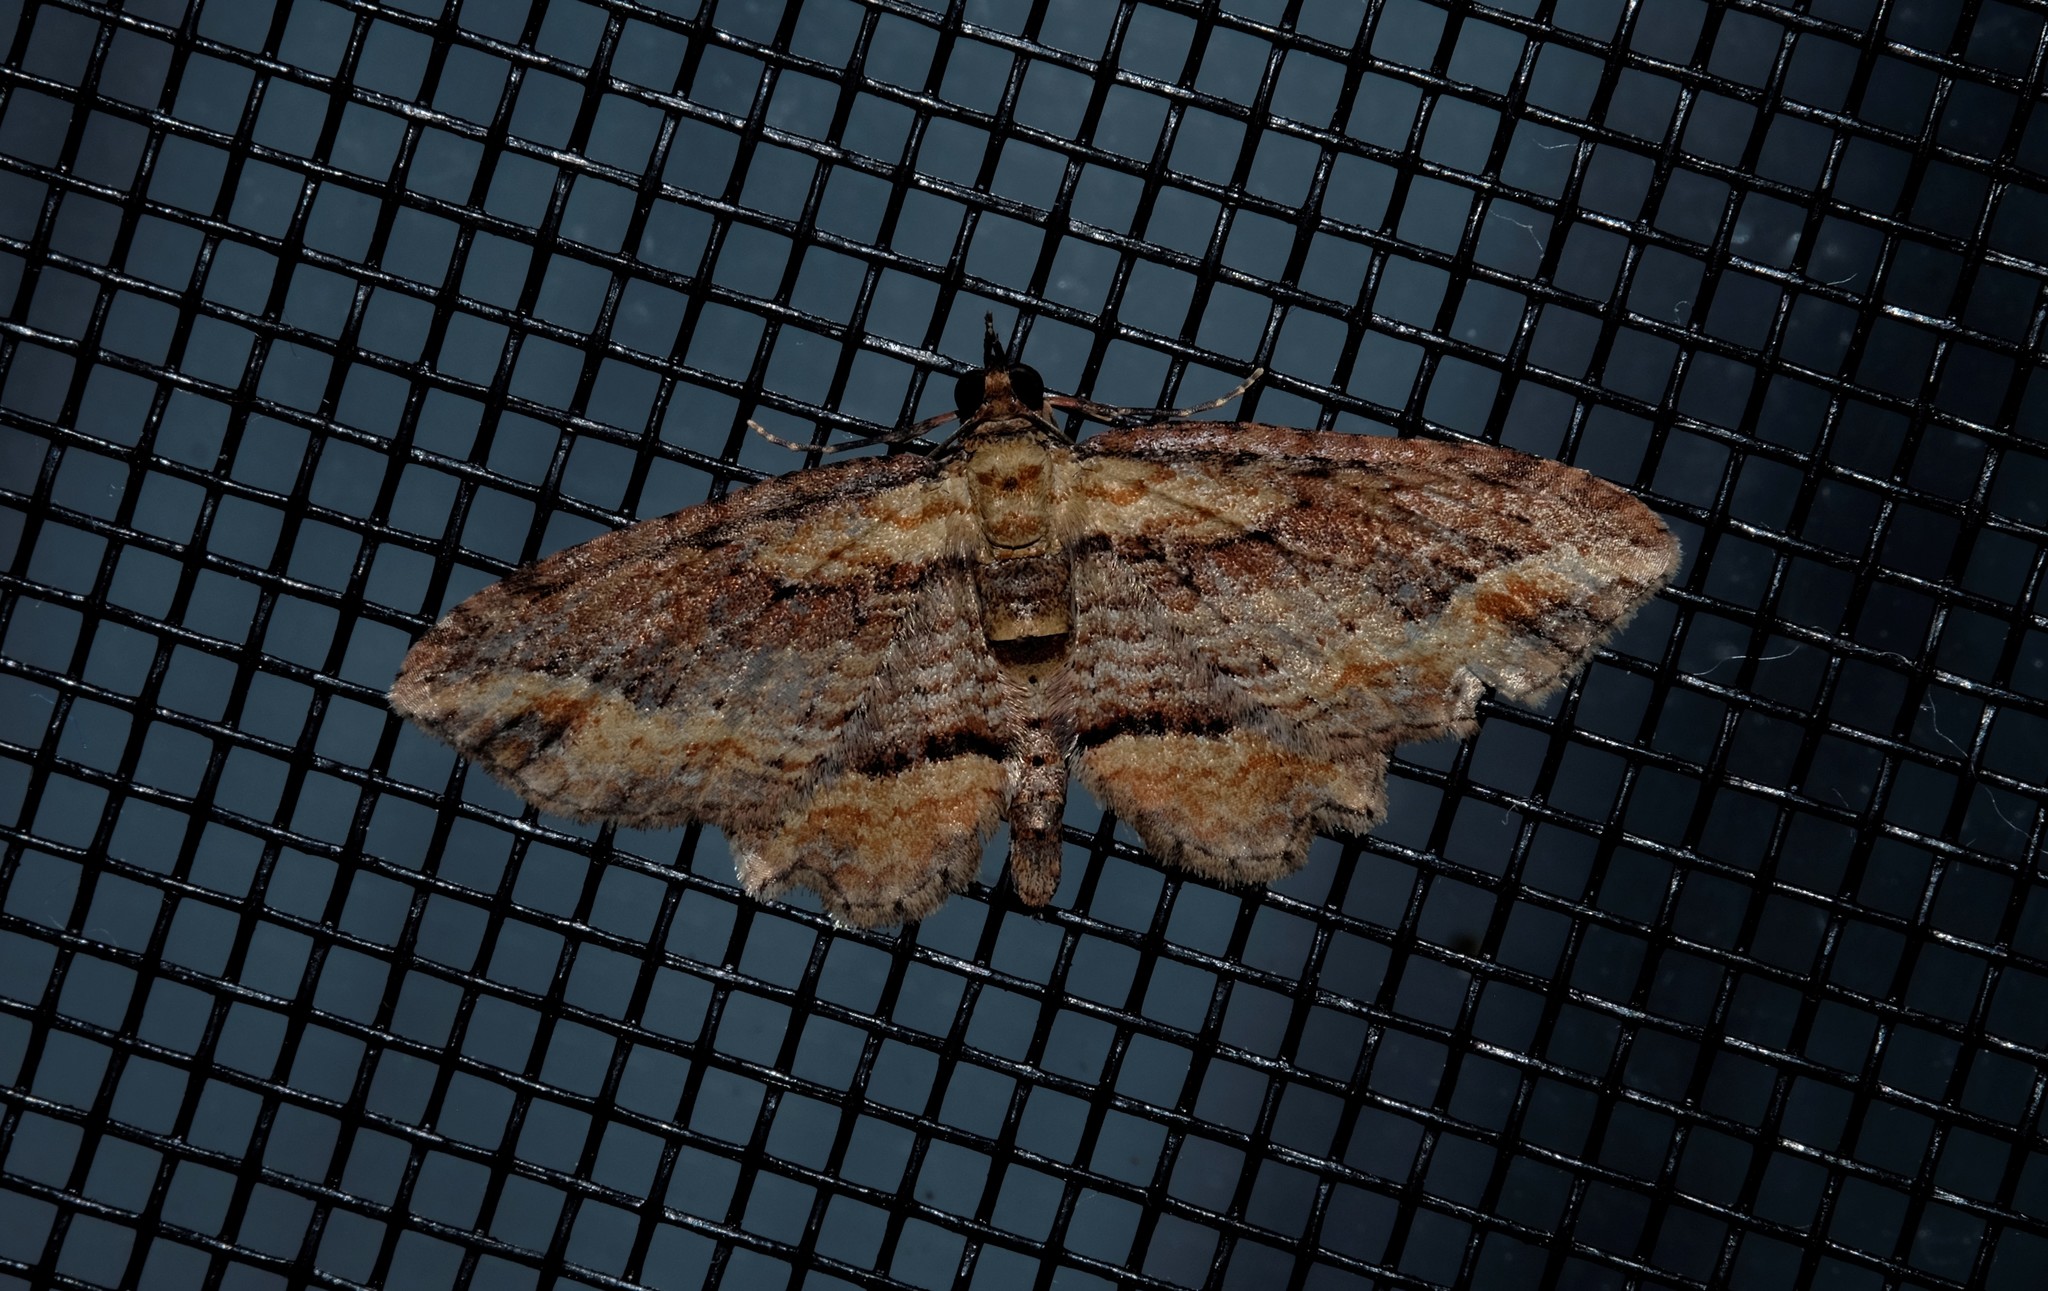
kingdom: Animalia
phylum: Arthropoda
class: Insecta
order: Lepidoptera
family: Geometridae
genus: Chloroclystis
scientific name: Chloroclystis filata
